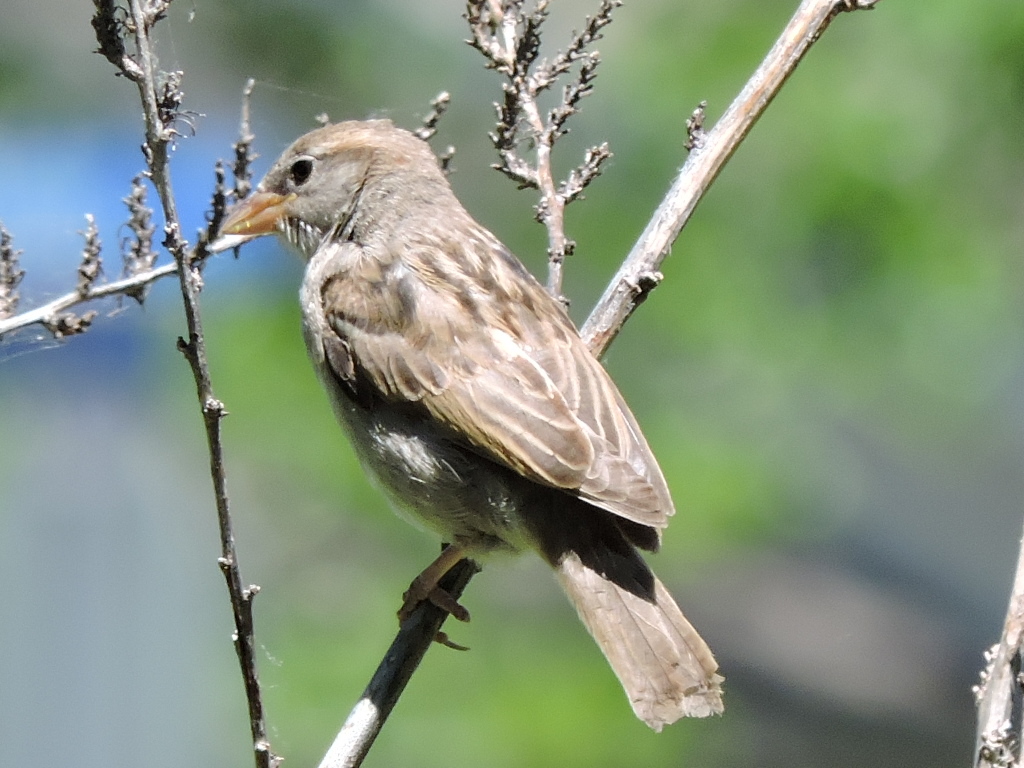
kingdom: Animalia
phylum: Chordata
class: Aves
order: Passeriformes
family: Passeridae
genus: Passer
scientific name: Passer domesticus
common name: House sparrow
